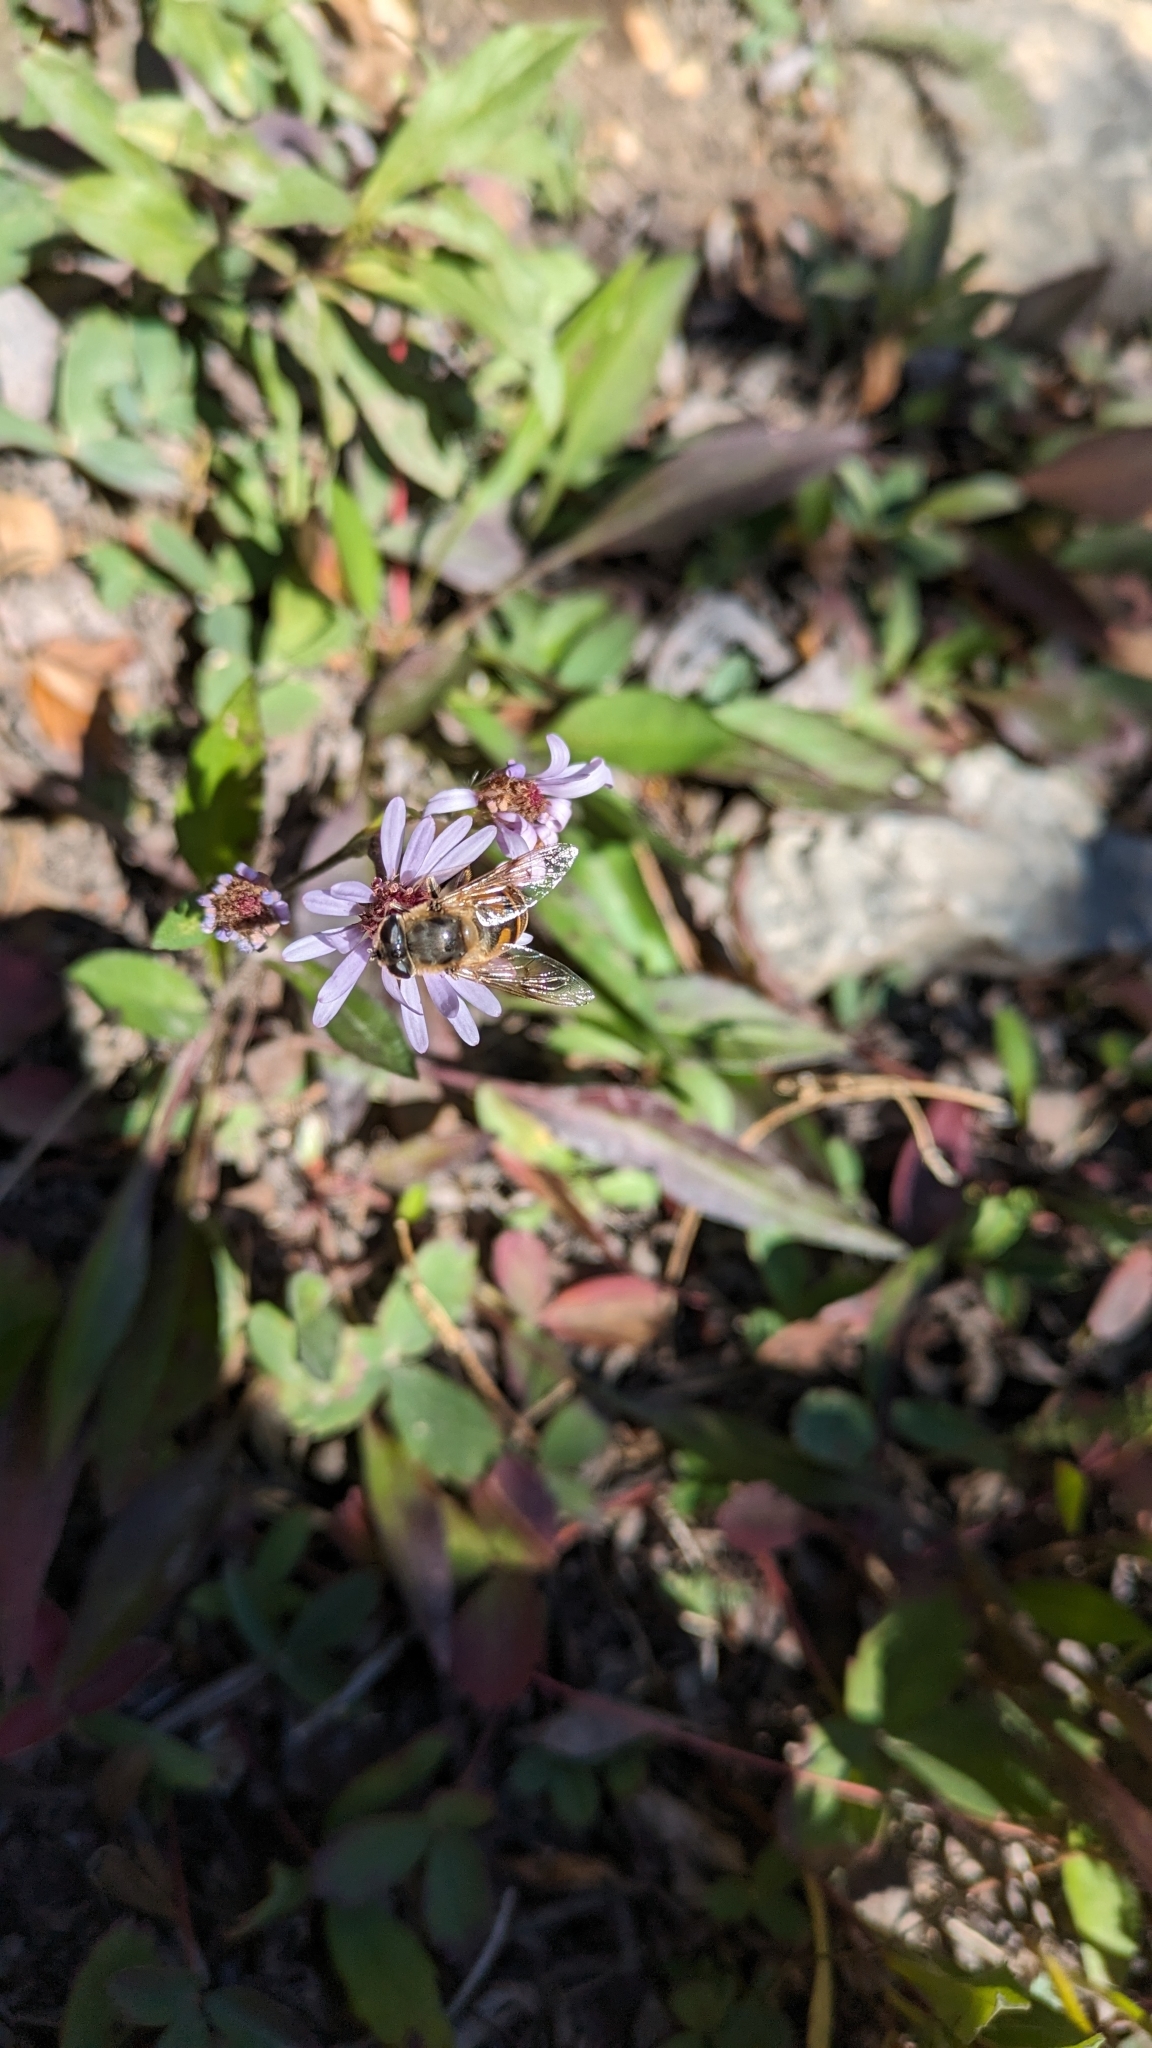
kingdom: Animalia
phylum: Arthropoda
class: Insecta
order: Diptera
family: Syrphidae
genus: Eristalis
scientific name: Eristalis tenax
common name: Drone fly
